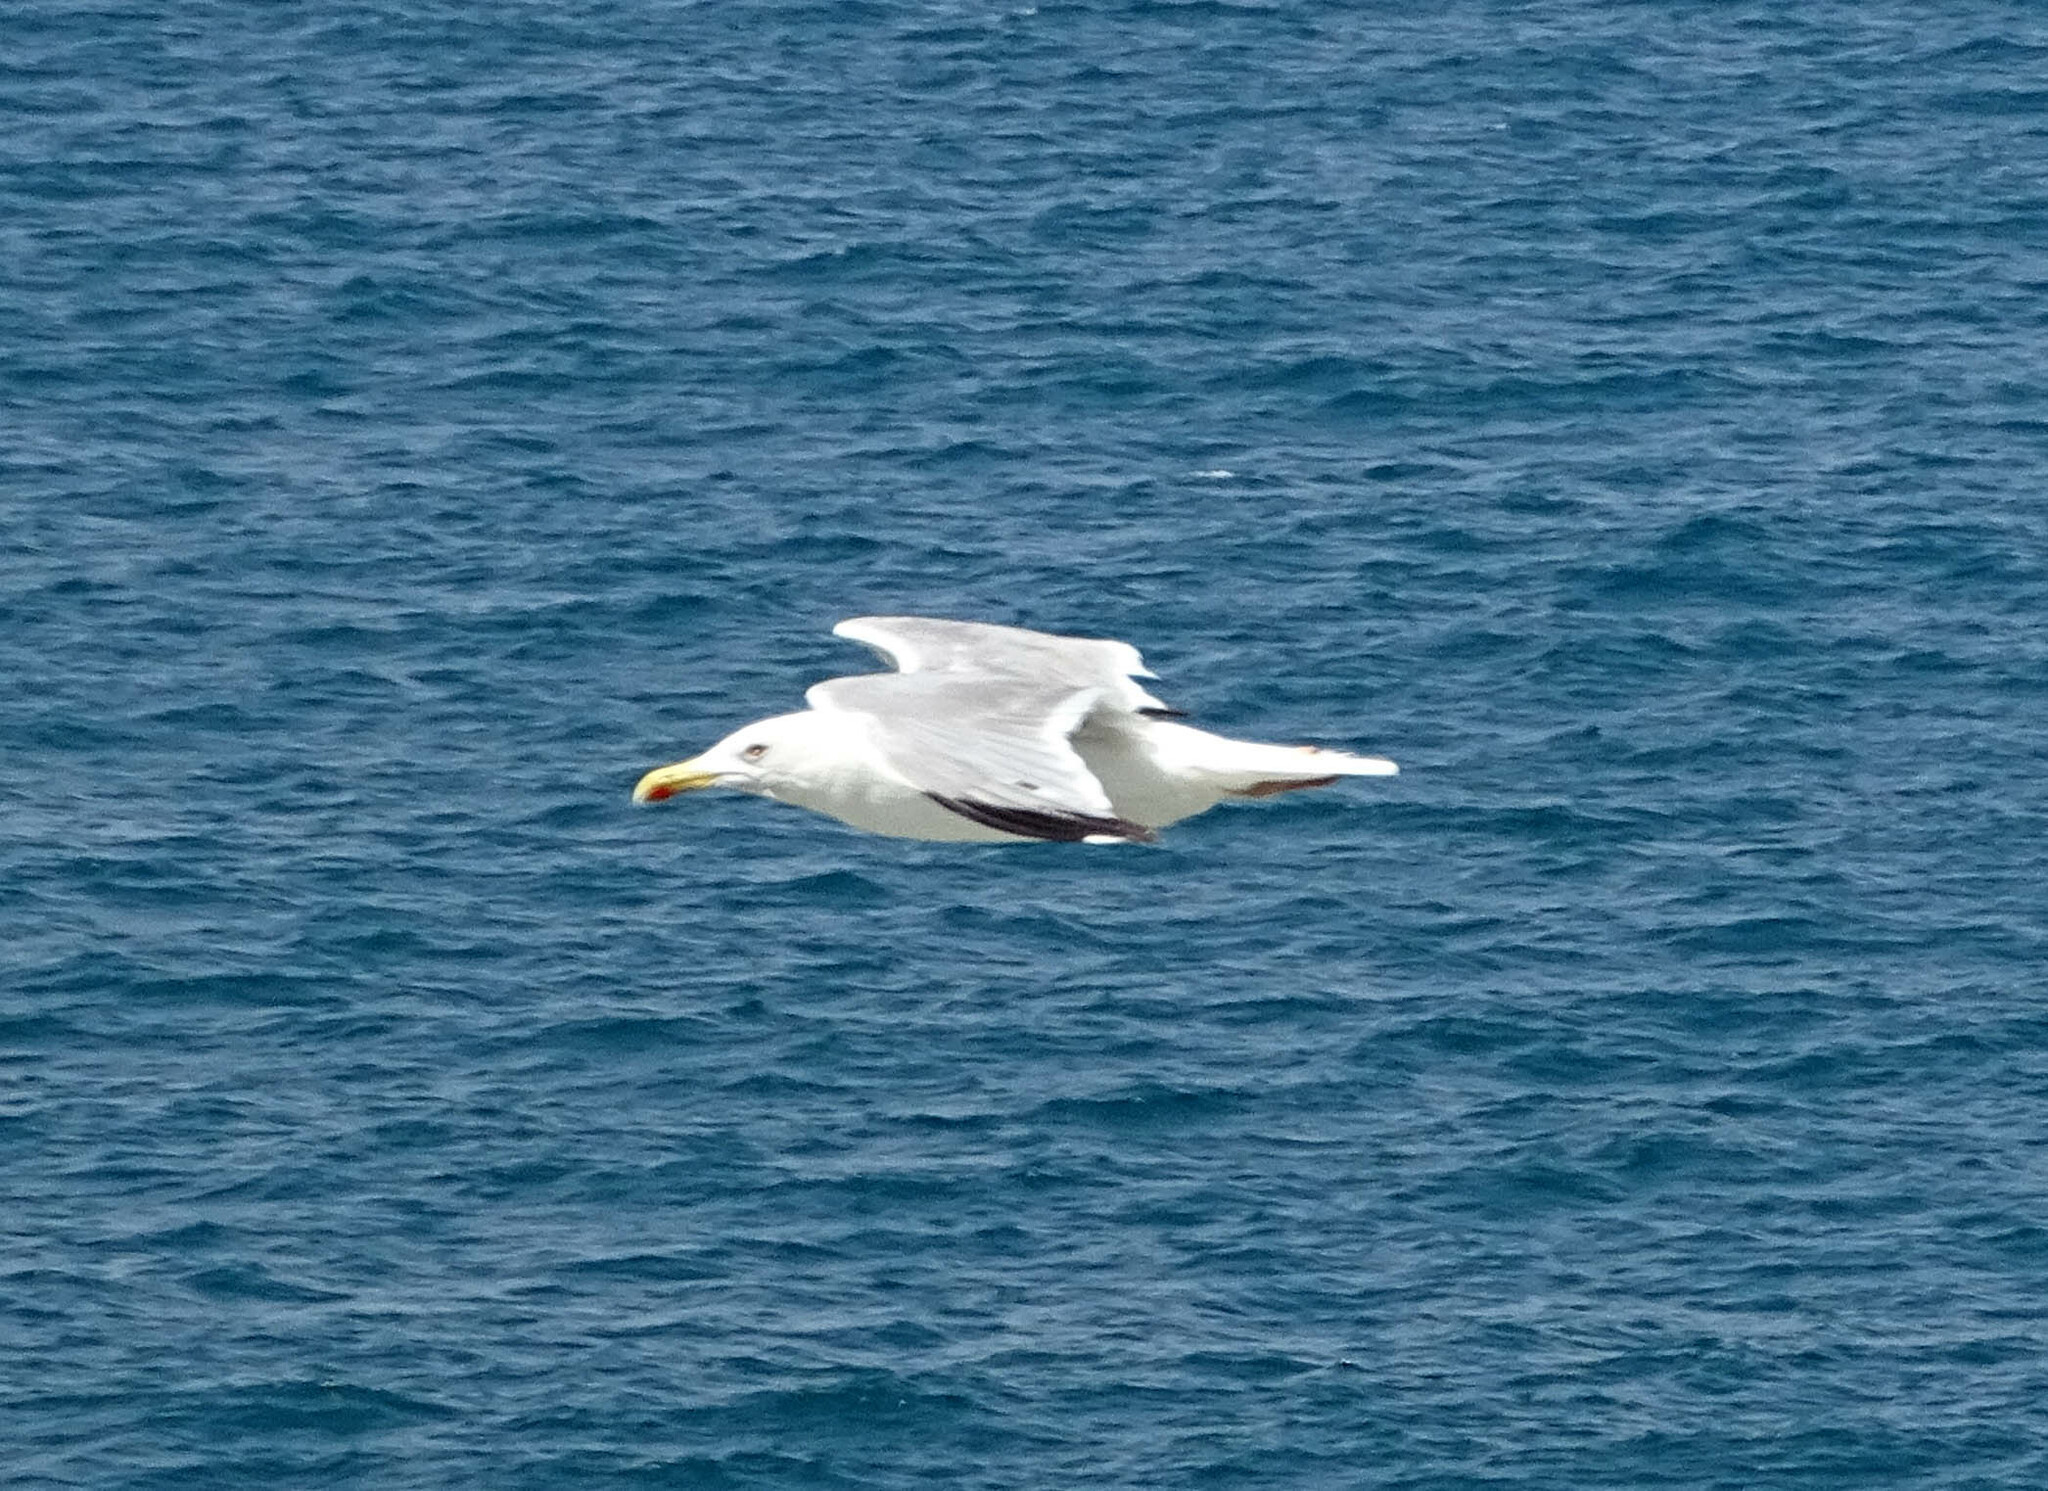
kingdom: Animalia
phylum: Chordata
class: Aves
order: Charadriiformes
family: Laridae
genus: Larus
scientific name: Larus michahellis
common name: Yellow-legged gull
